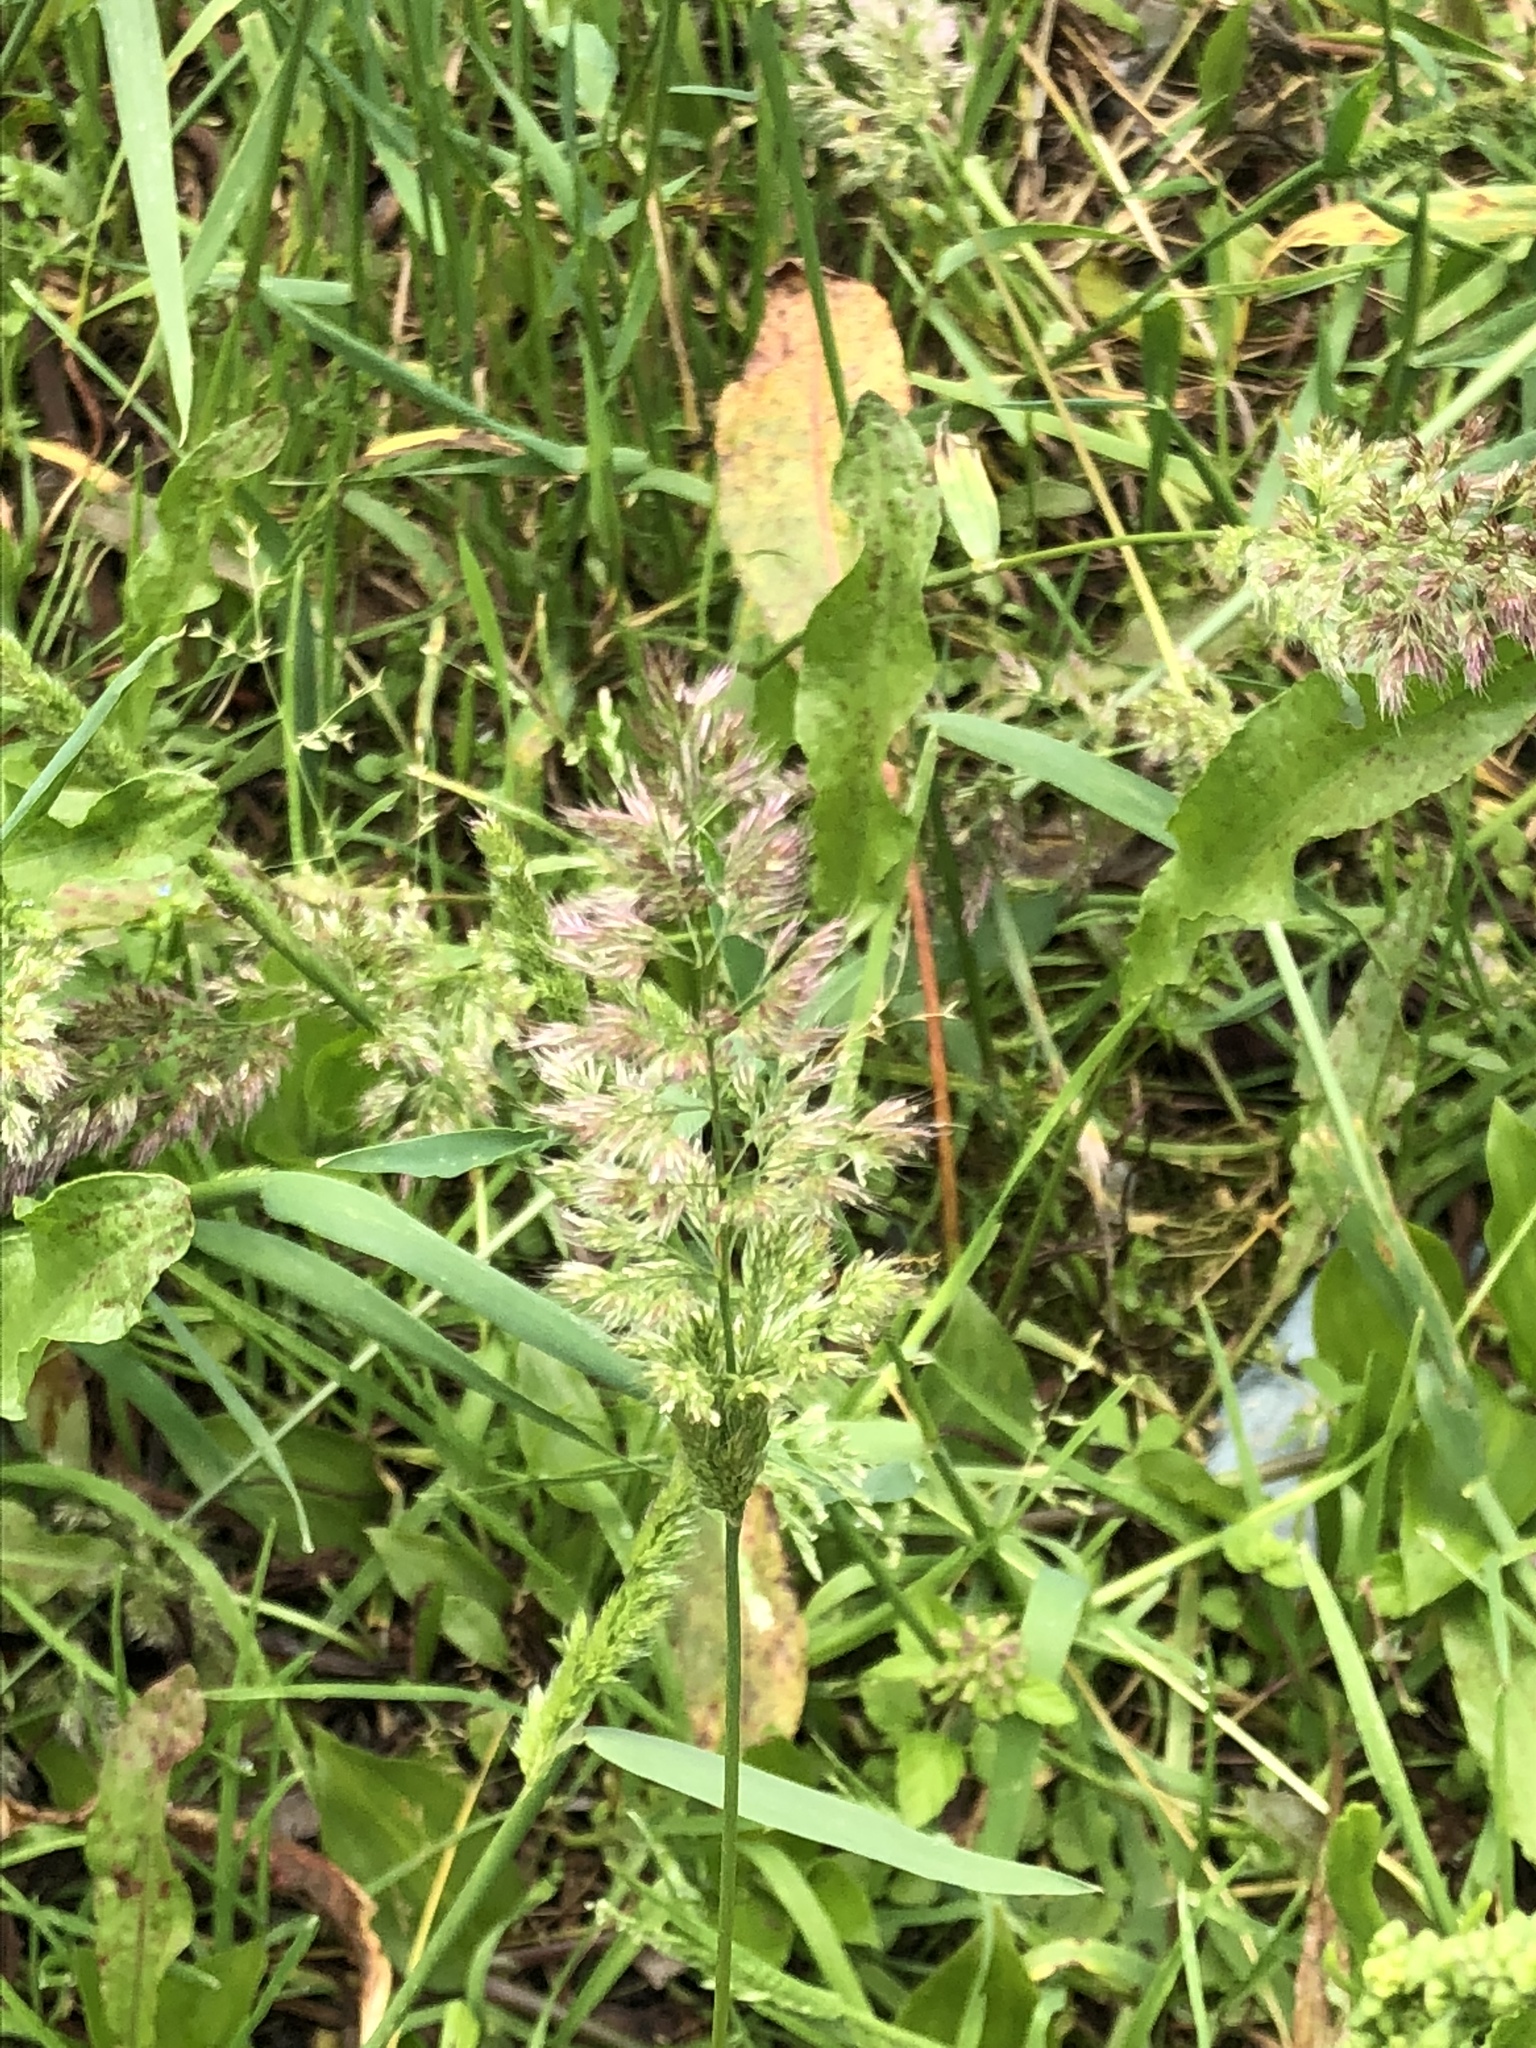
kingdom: Plantae
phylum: Tracheophyta
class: Liliopsida
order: Poales
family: Poaceae
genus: Polypogon
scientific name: Polypogon fugax
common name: Asia minor bluegrass
